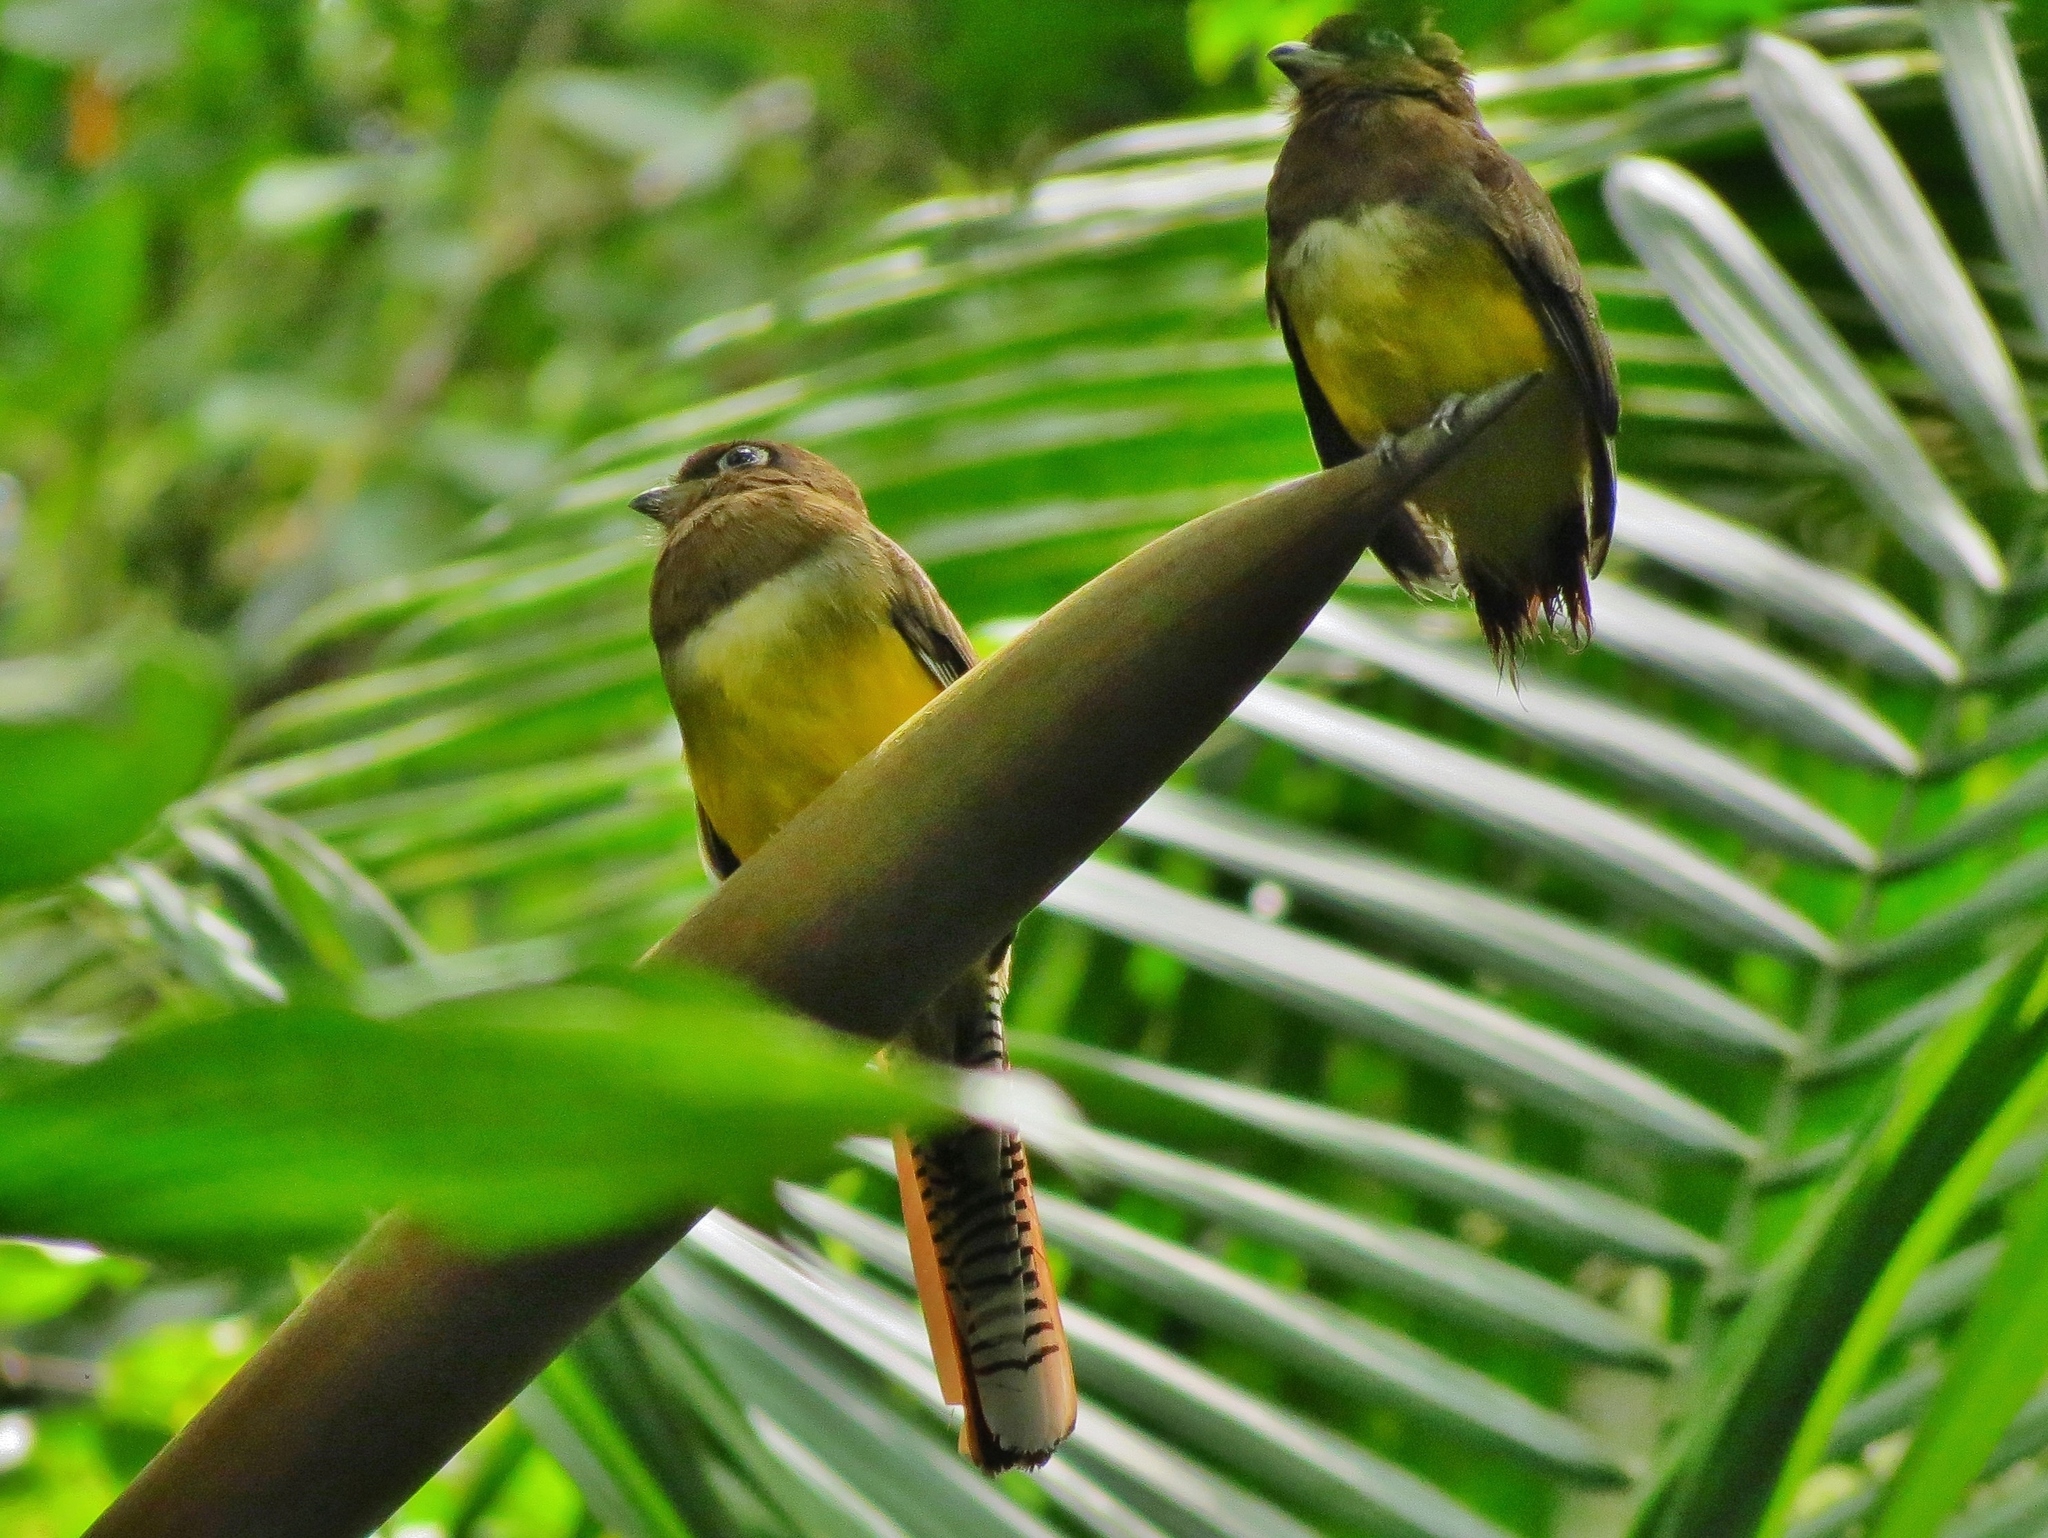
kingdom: Animalia
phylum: Chordata
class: Aves
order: Trogoniformes
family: Trogonidae
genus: Trogon
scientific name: Trogon rufus
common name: Black-throated trogon
